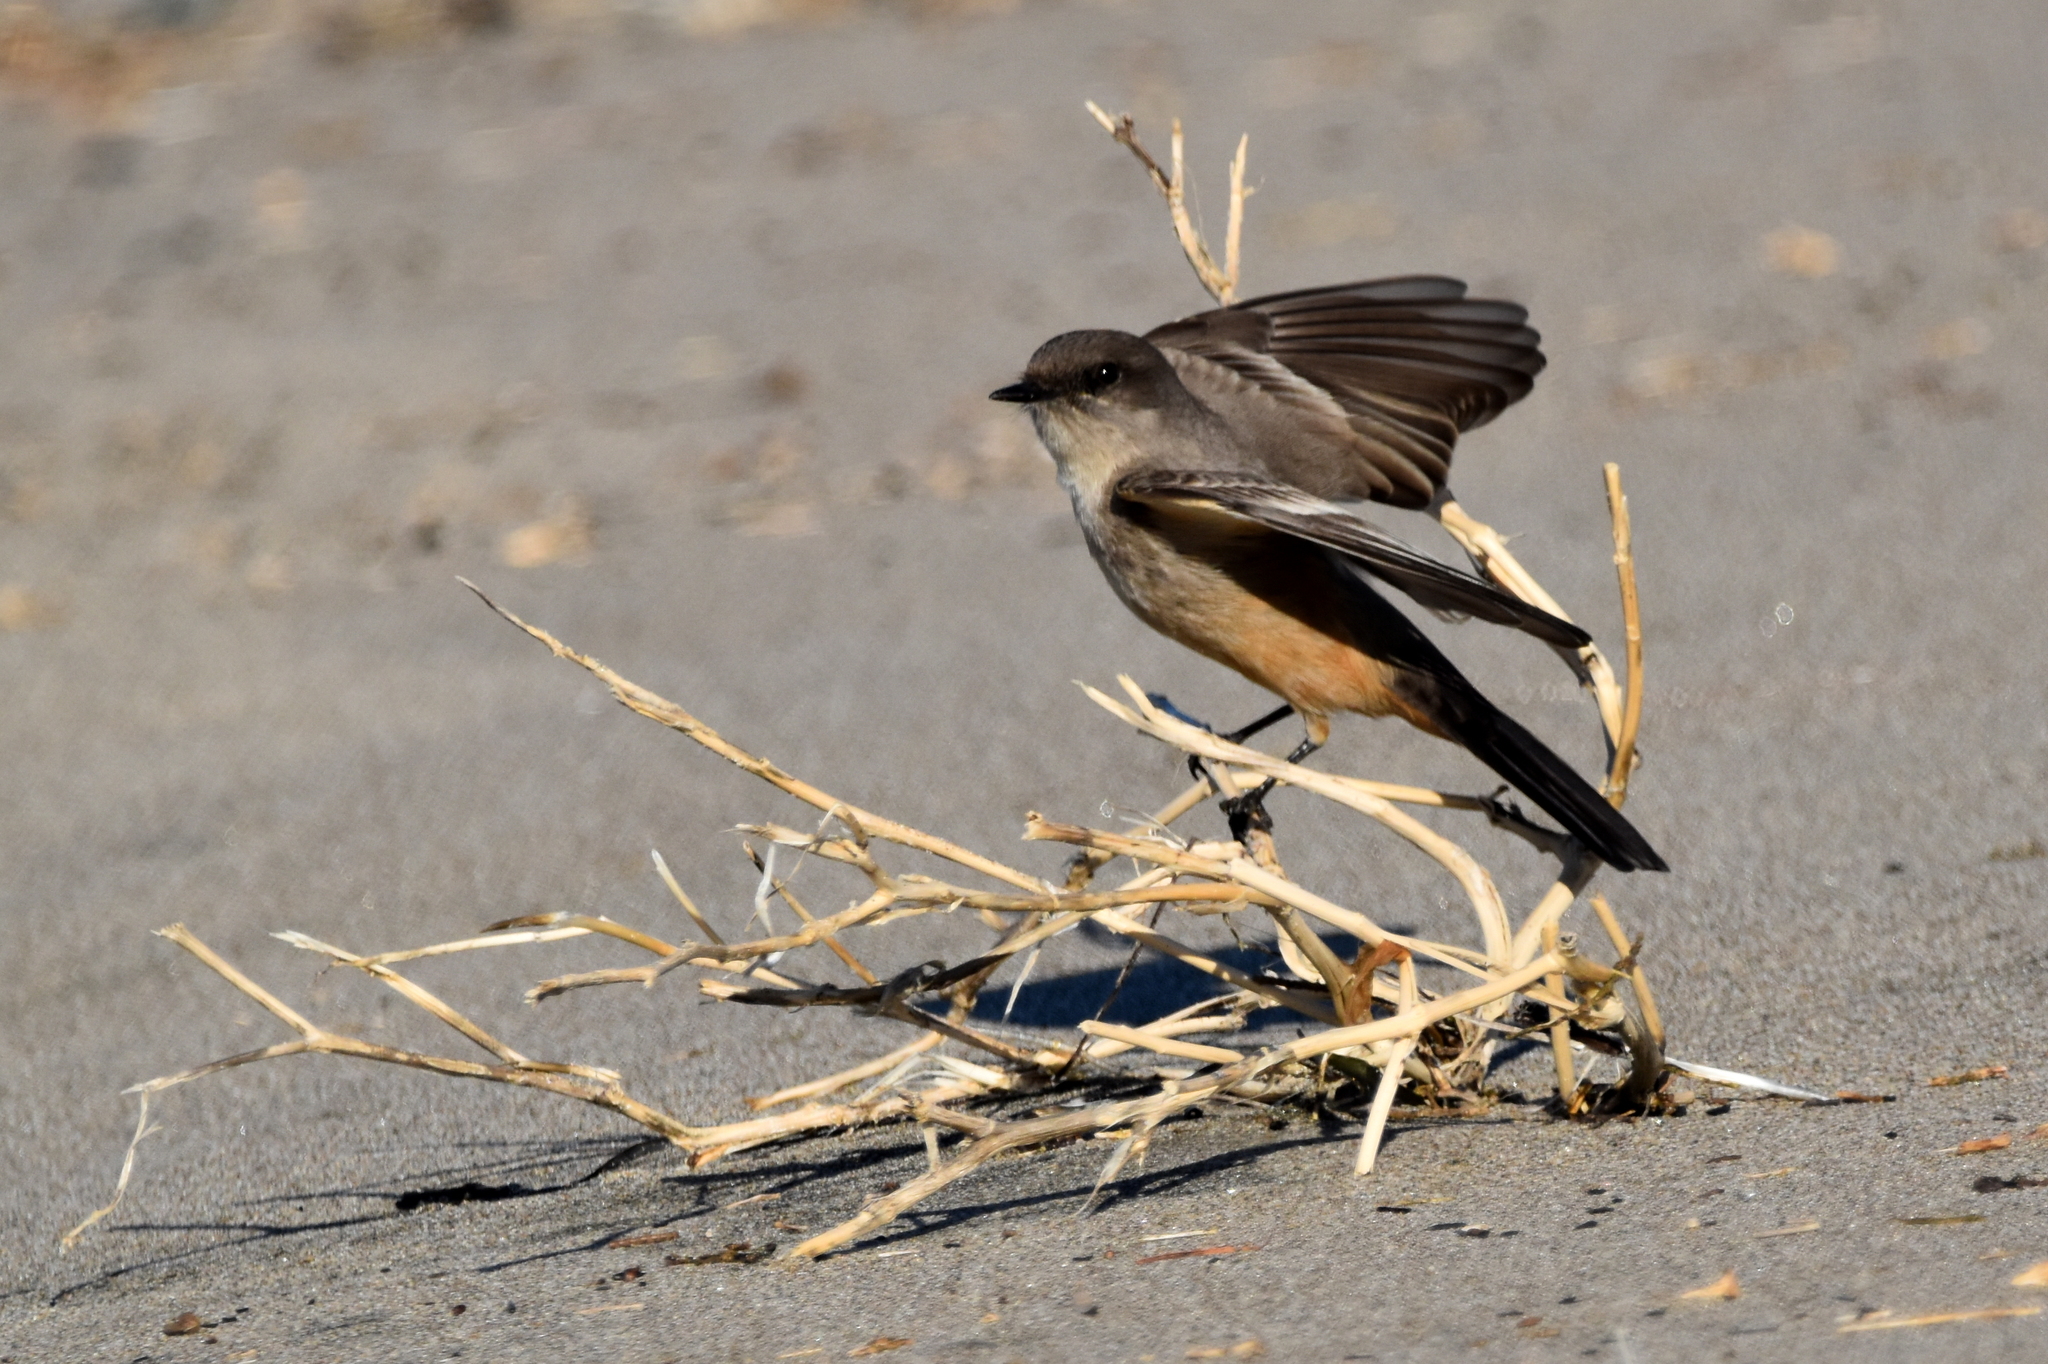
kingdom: Animalia
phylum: Chordata
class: Aves
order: Passeriformes
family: Tyrannidae
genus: Sayornis
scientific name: Sayornis saya
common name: Say's phoebe
